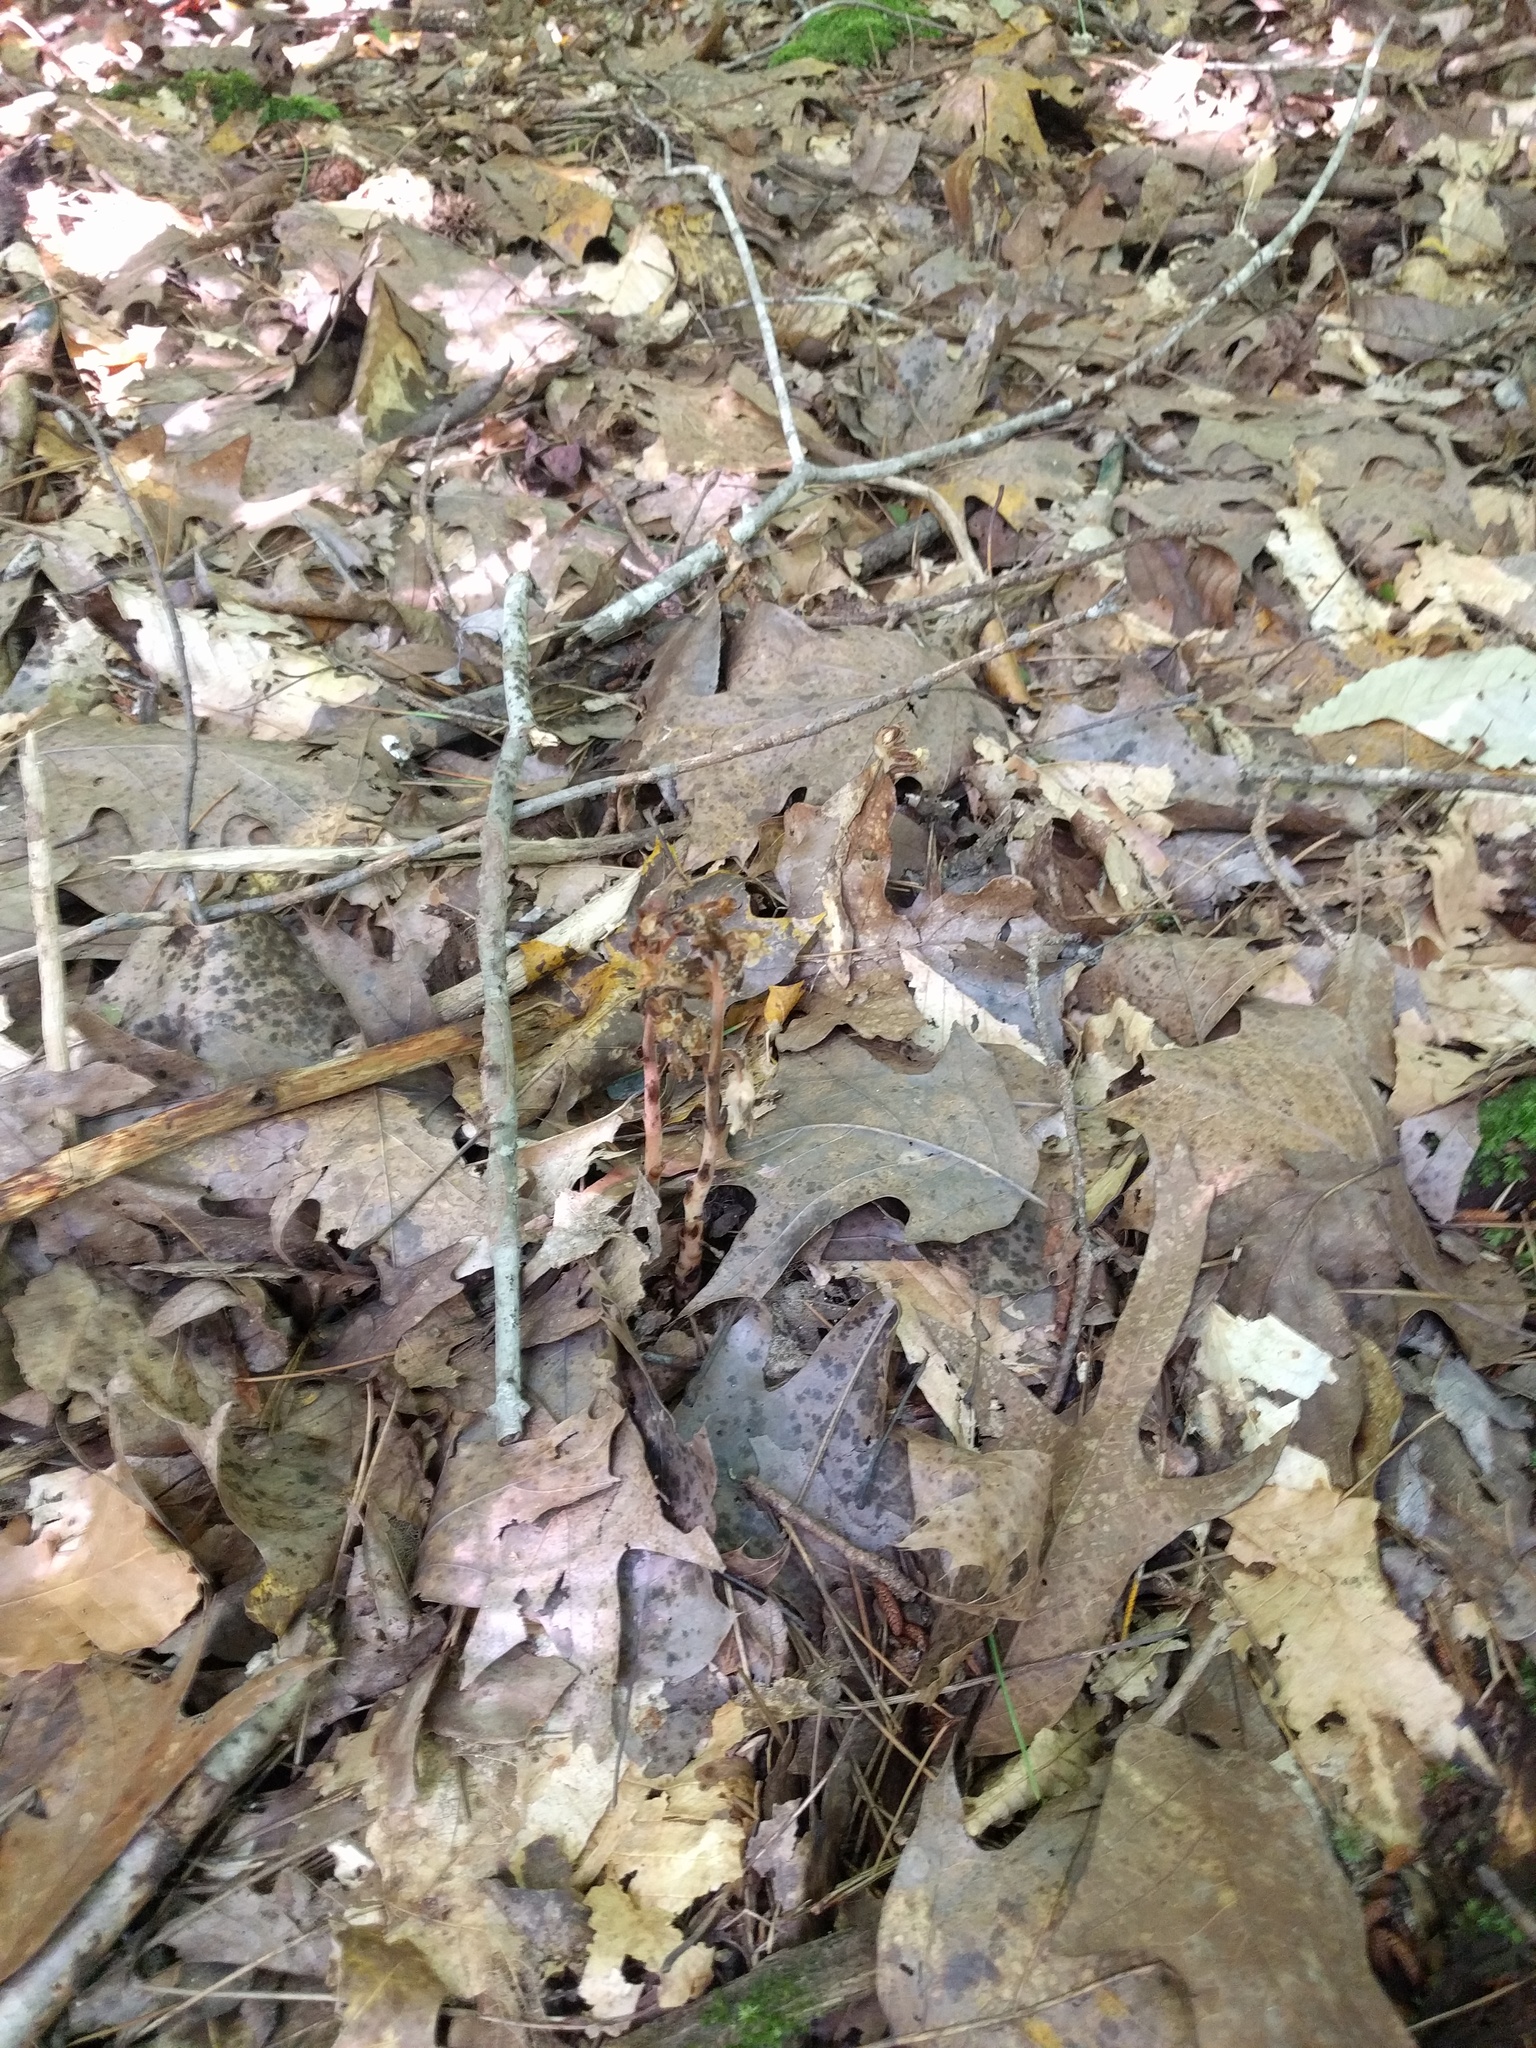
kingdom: Plantae
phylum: Tracheophyta
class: Magnoliopsida
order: Ericales
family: Ericaceae
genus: Hypopitys
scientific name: Hypopitys monotropa
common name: Yellow bird's-nest
